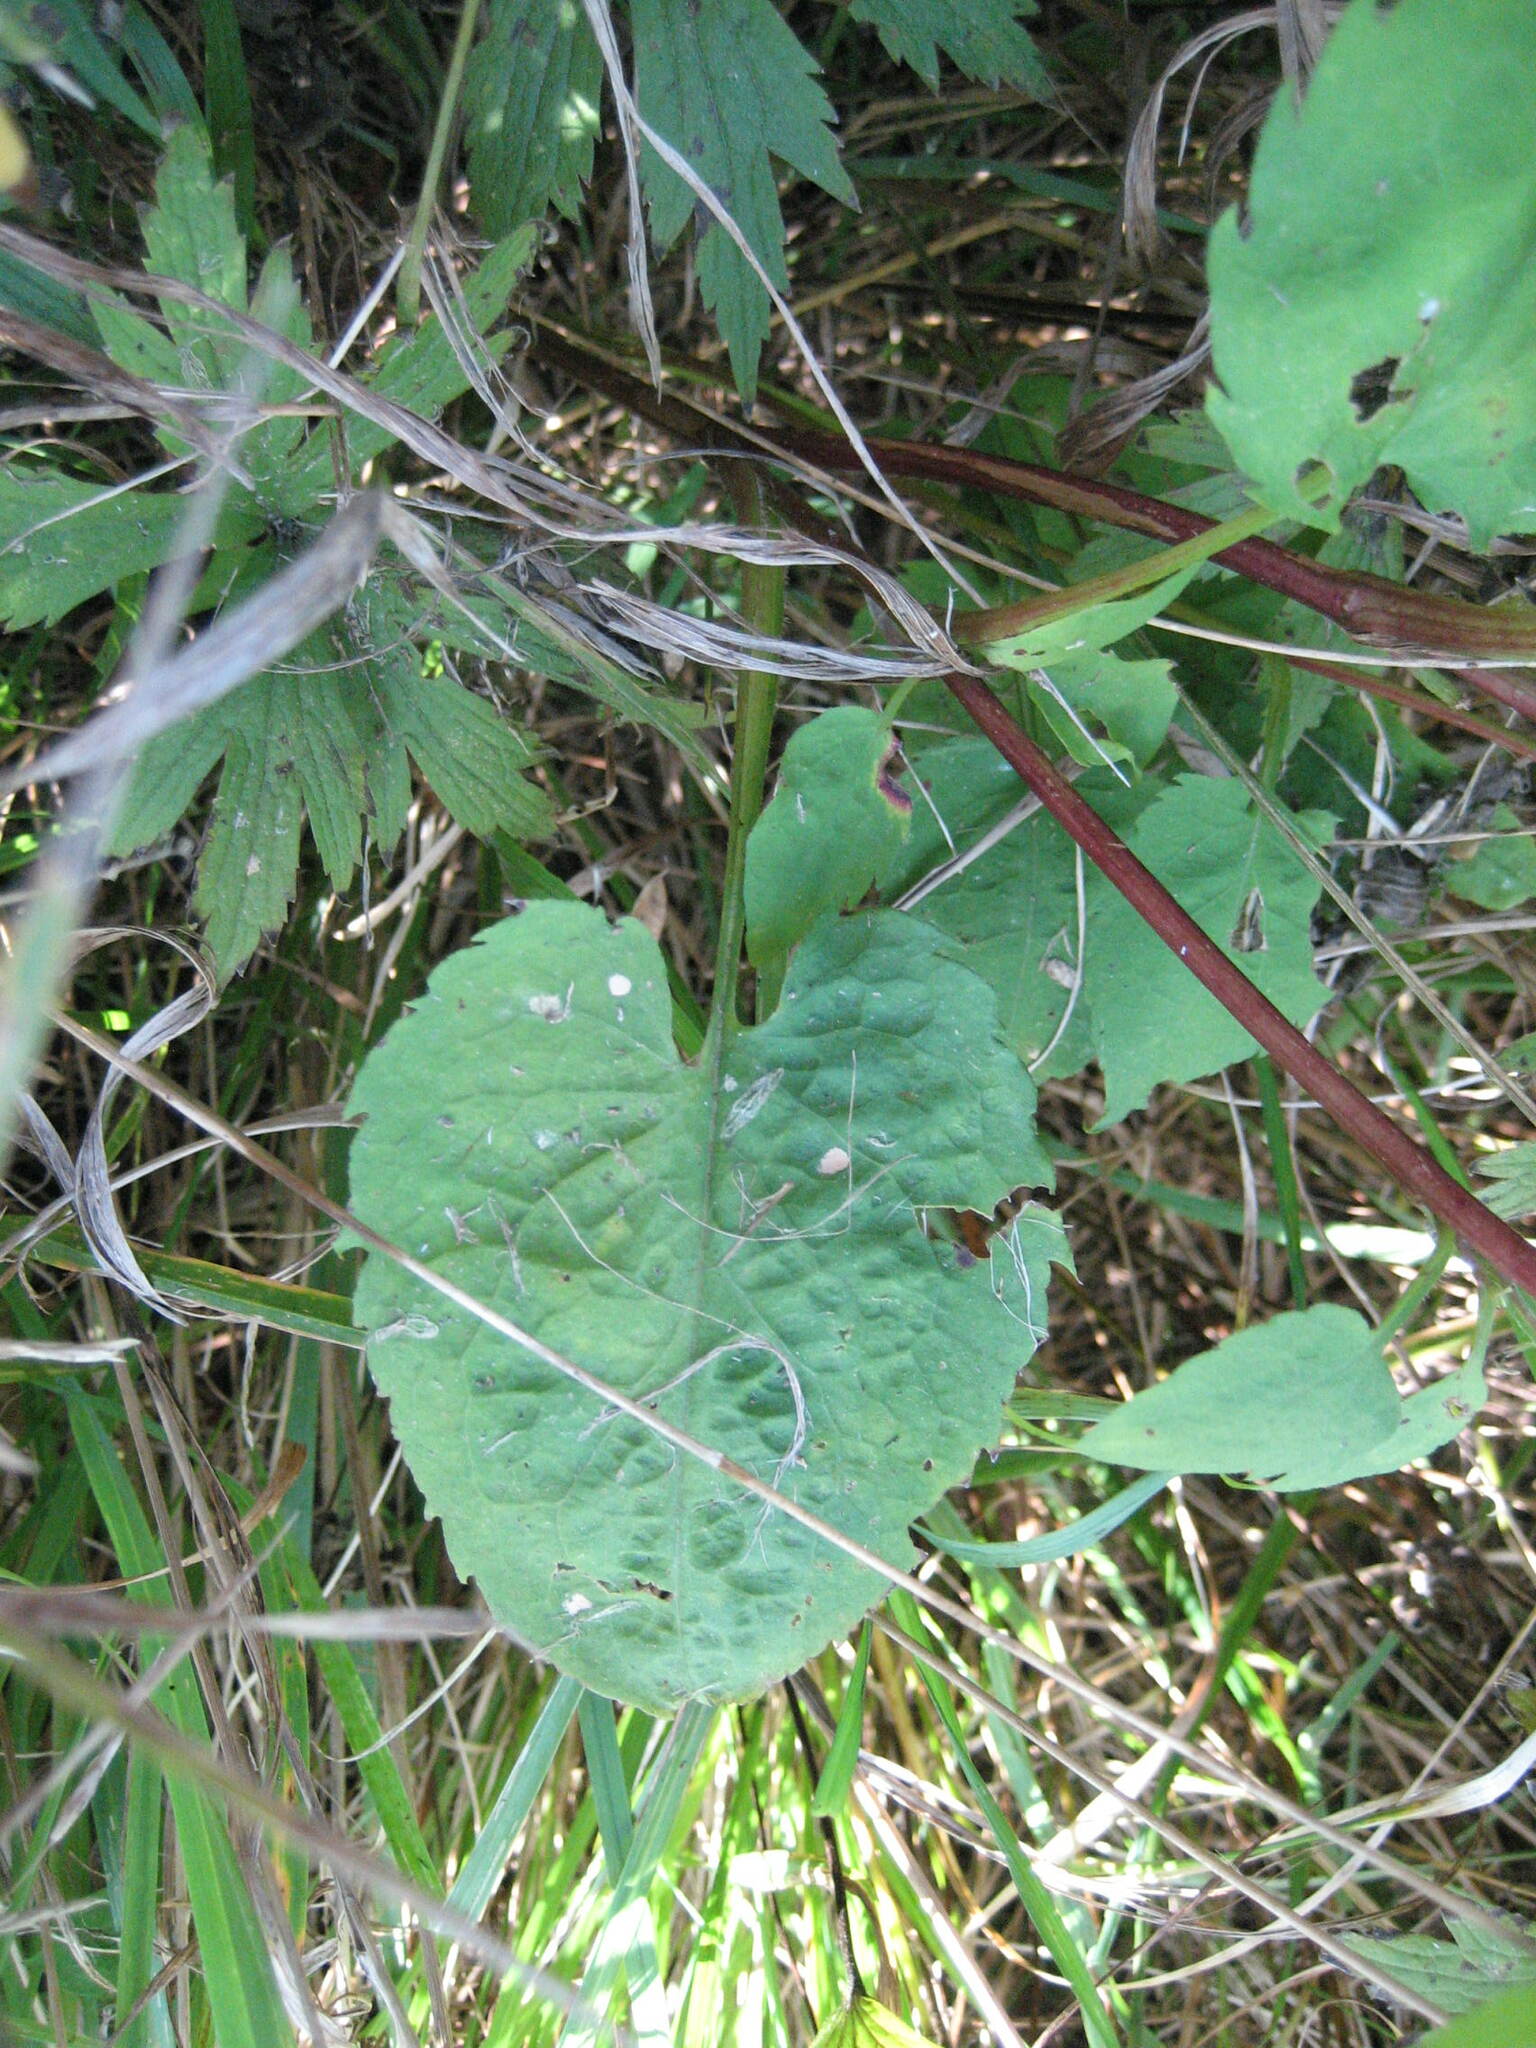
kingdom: Plantae
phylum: Tracheophyta
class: Magnoliopsida
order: Asterales
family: Asteraceae
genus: Symphyotrichum
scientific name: Symphyotrichum cordifolium
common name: Beeweed
